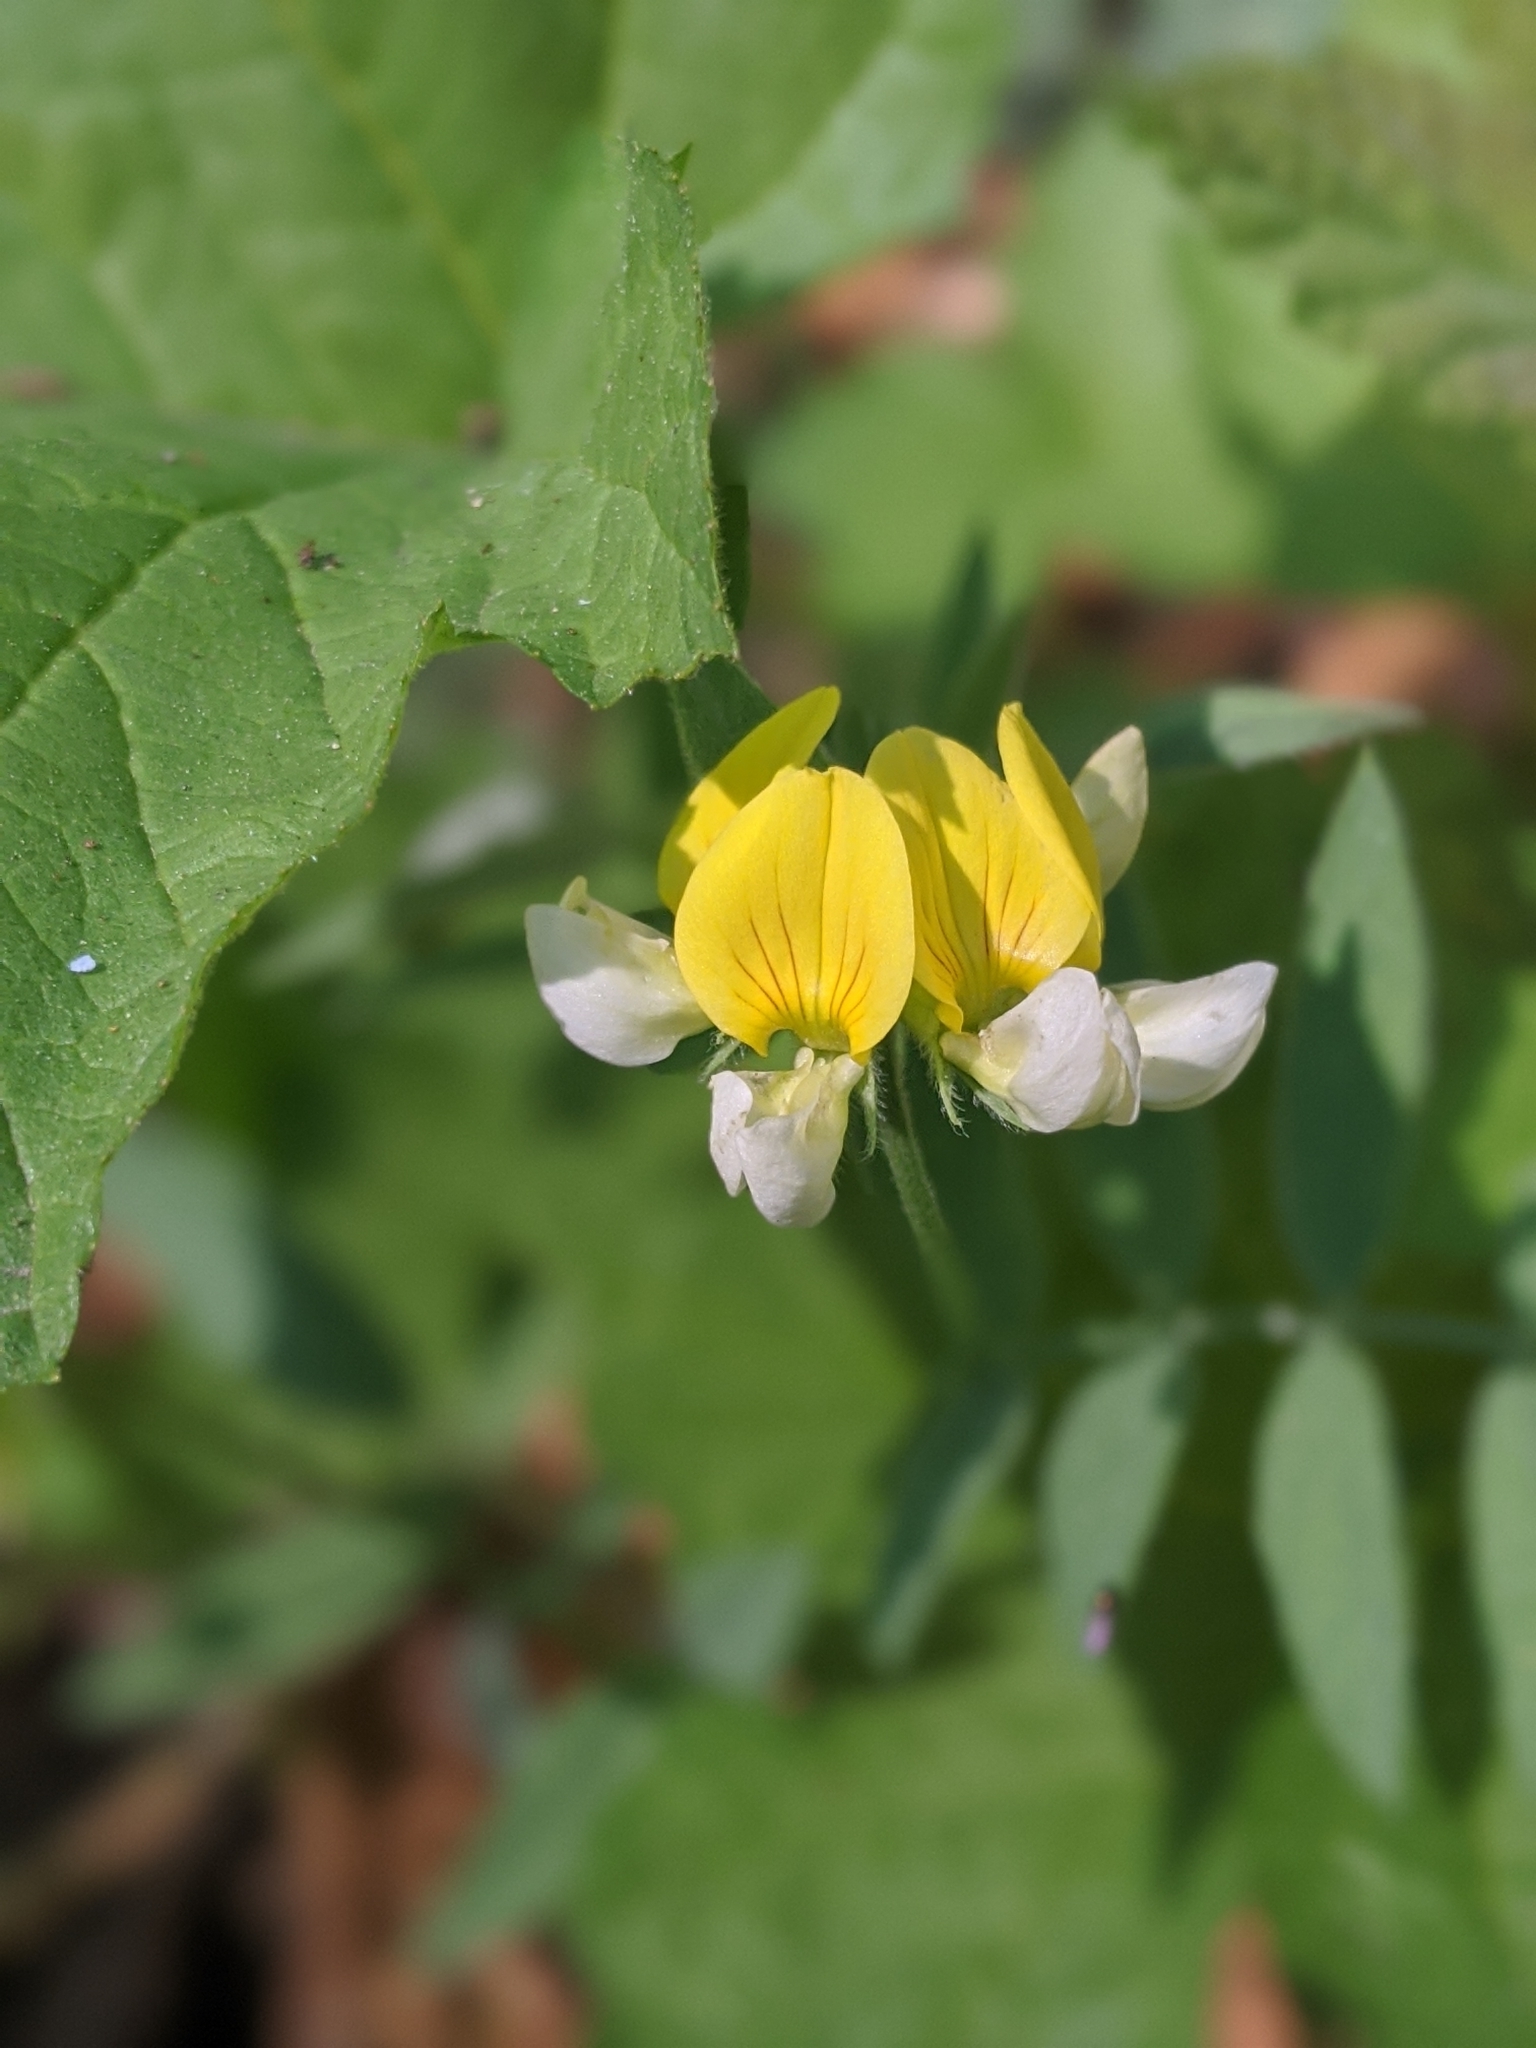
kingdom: Plantae
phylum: Tracheophyta
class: Magnoliopsida
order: Fabales
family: Fabaceae
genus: Hosackia
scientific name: Hosackia oblongifolia
